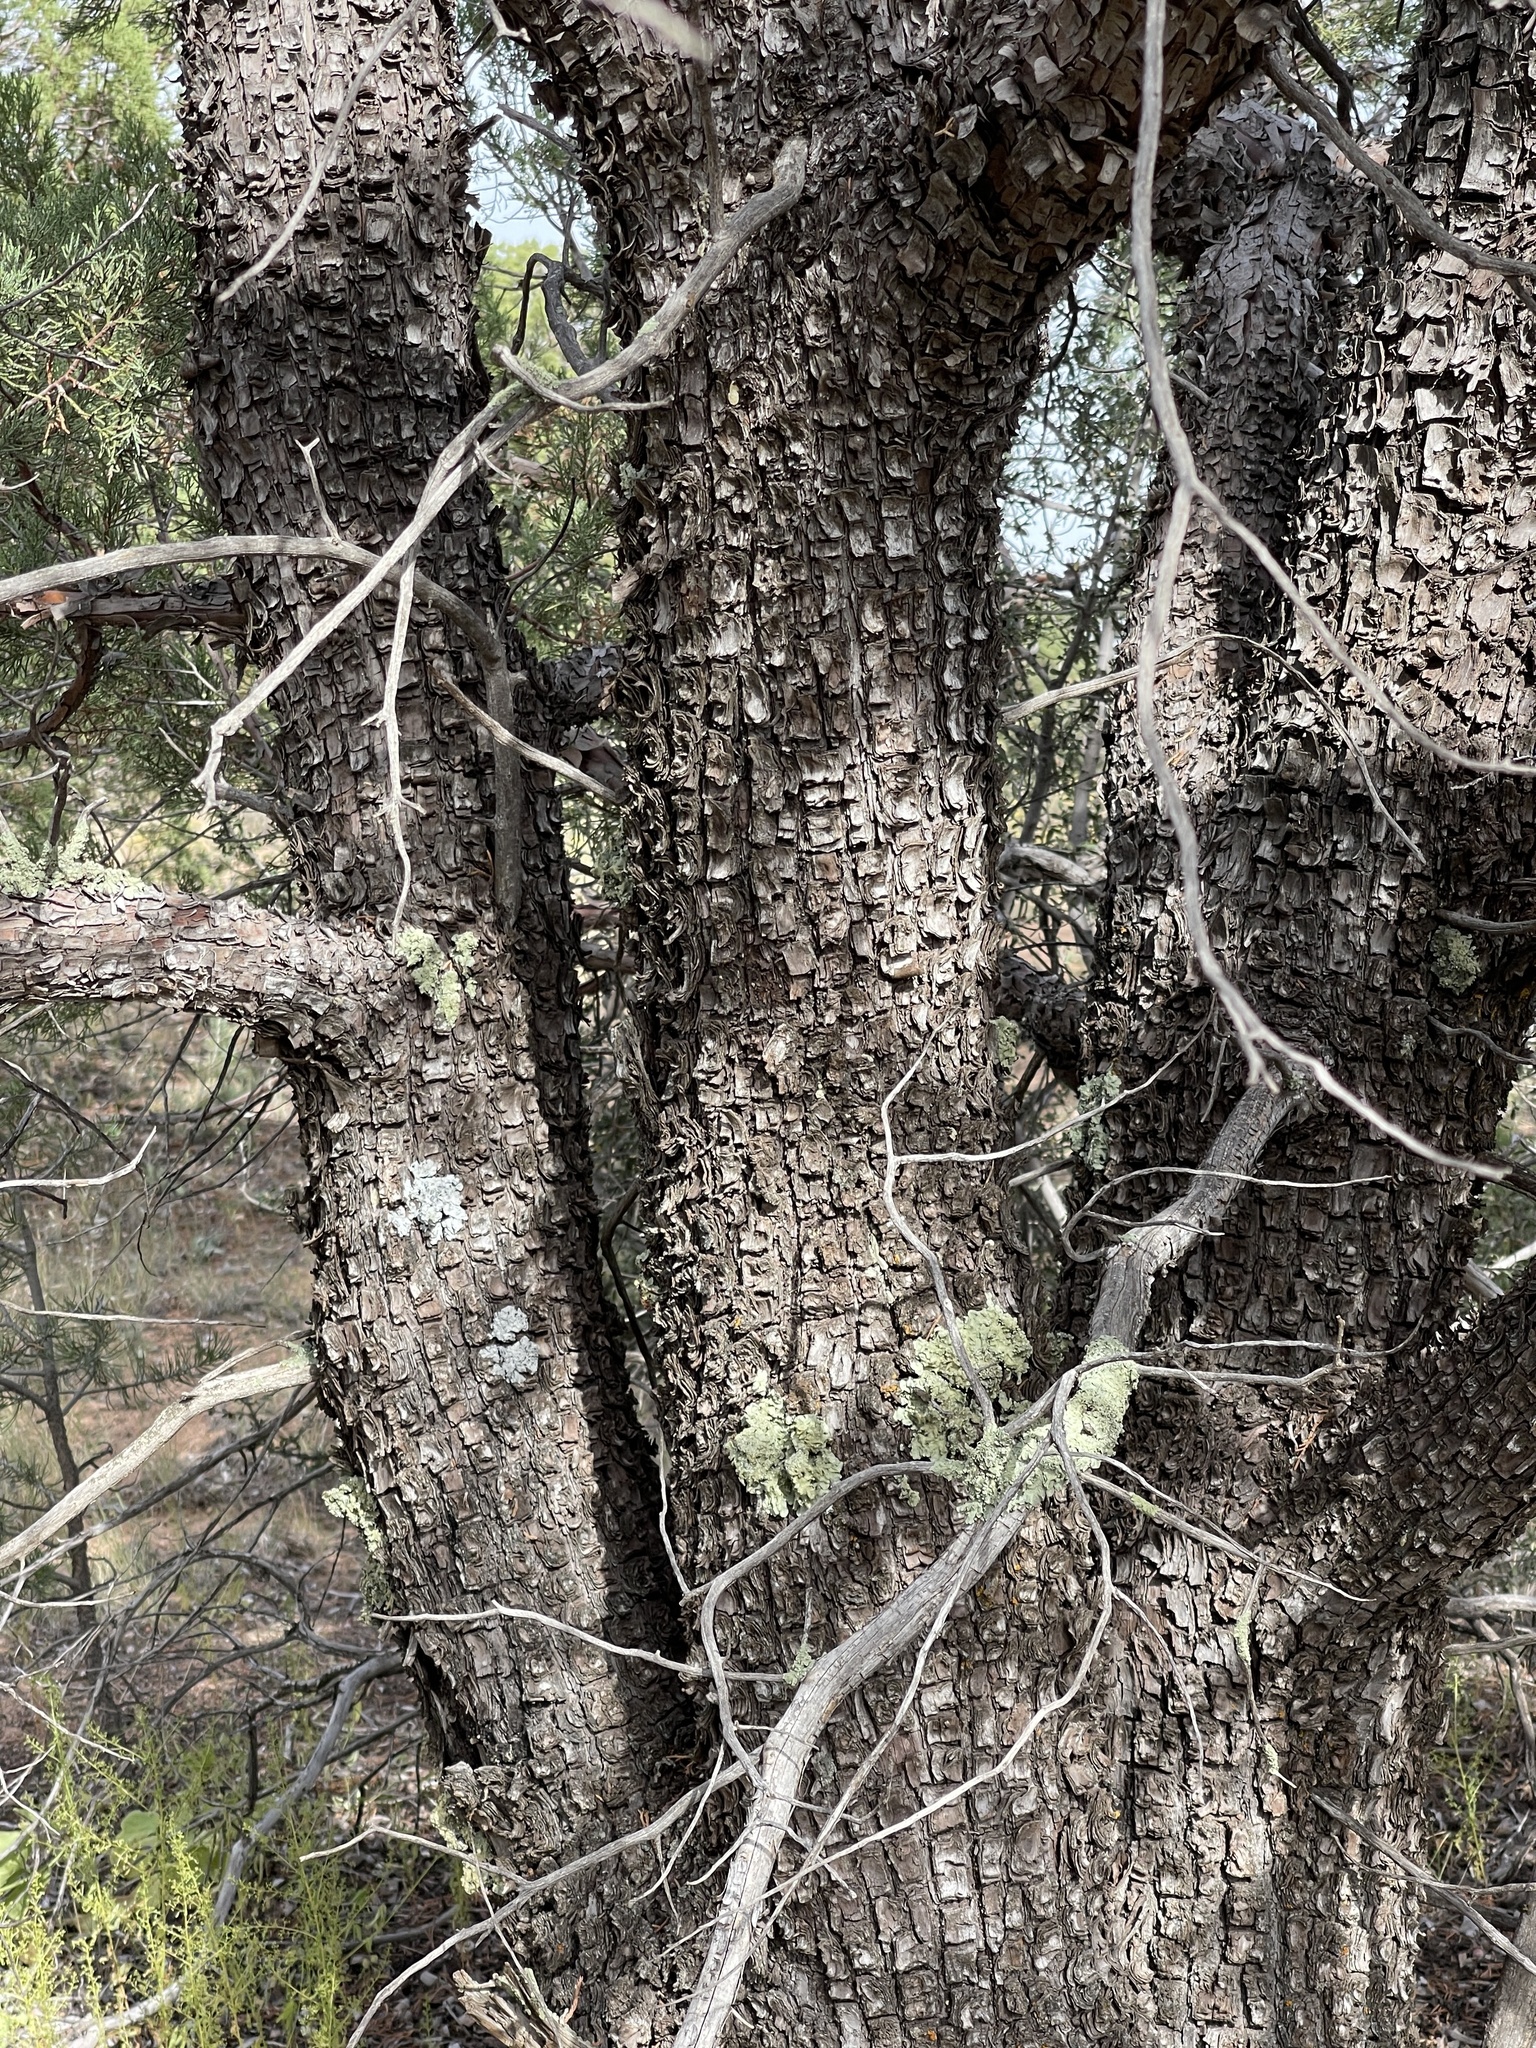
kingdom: Plantae
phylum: Tracheophyta
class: Pinopsida
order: Pinales
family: Cupressaceae
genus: Juniperus
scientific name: Juniperus deppeana
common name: Alligator juniper
